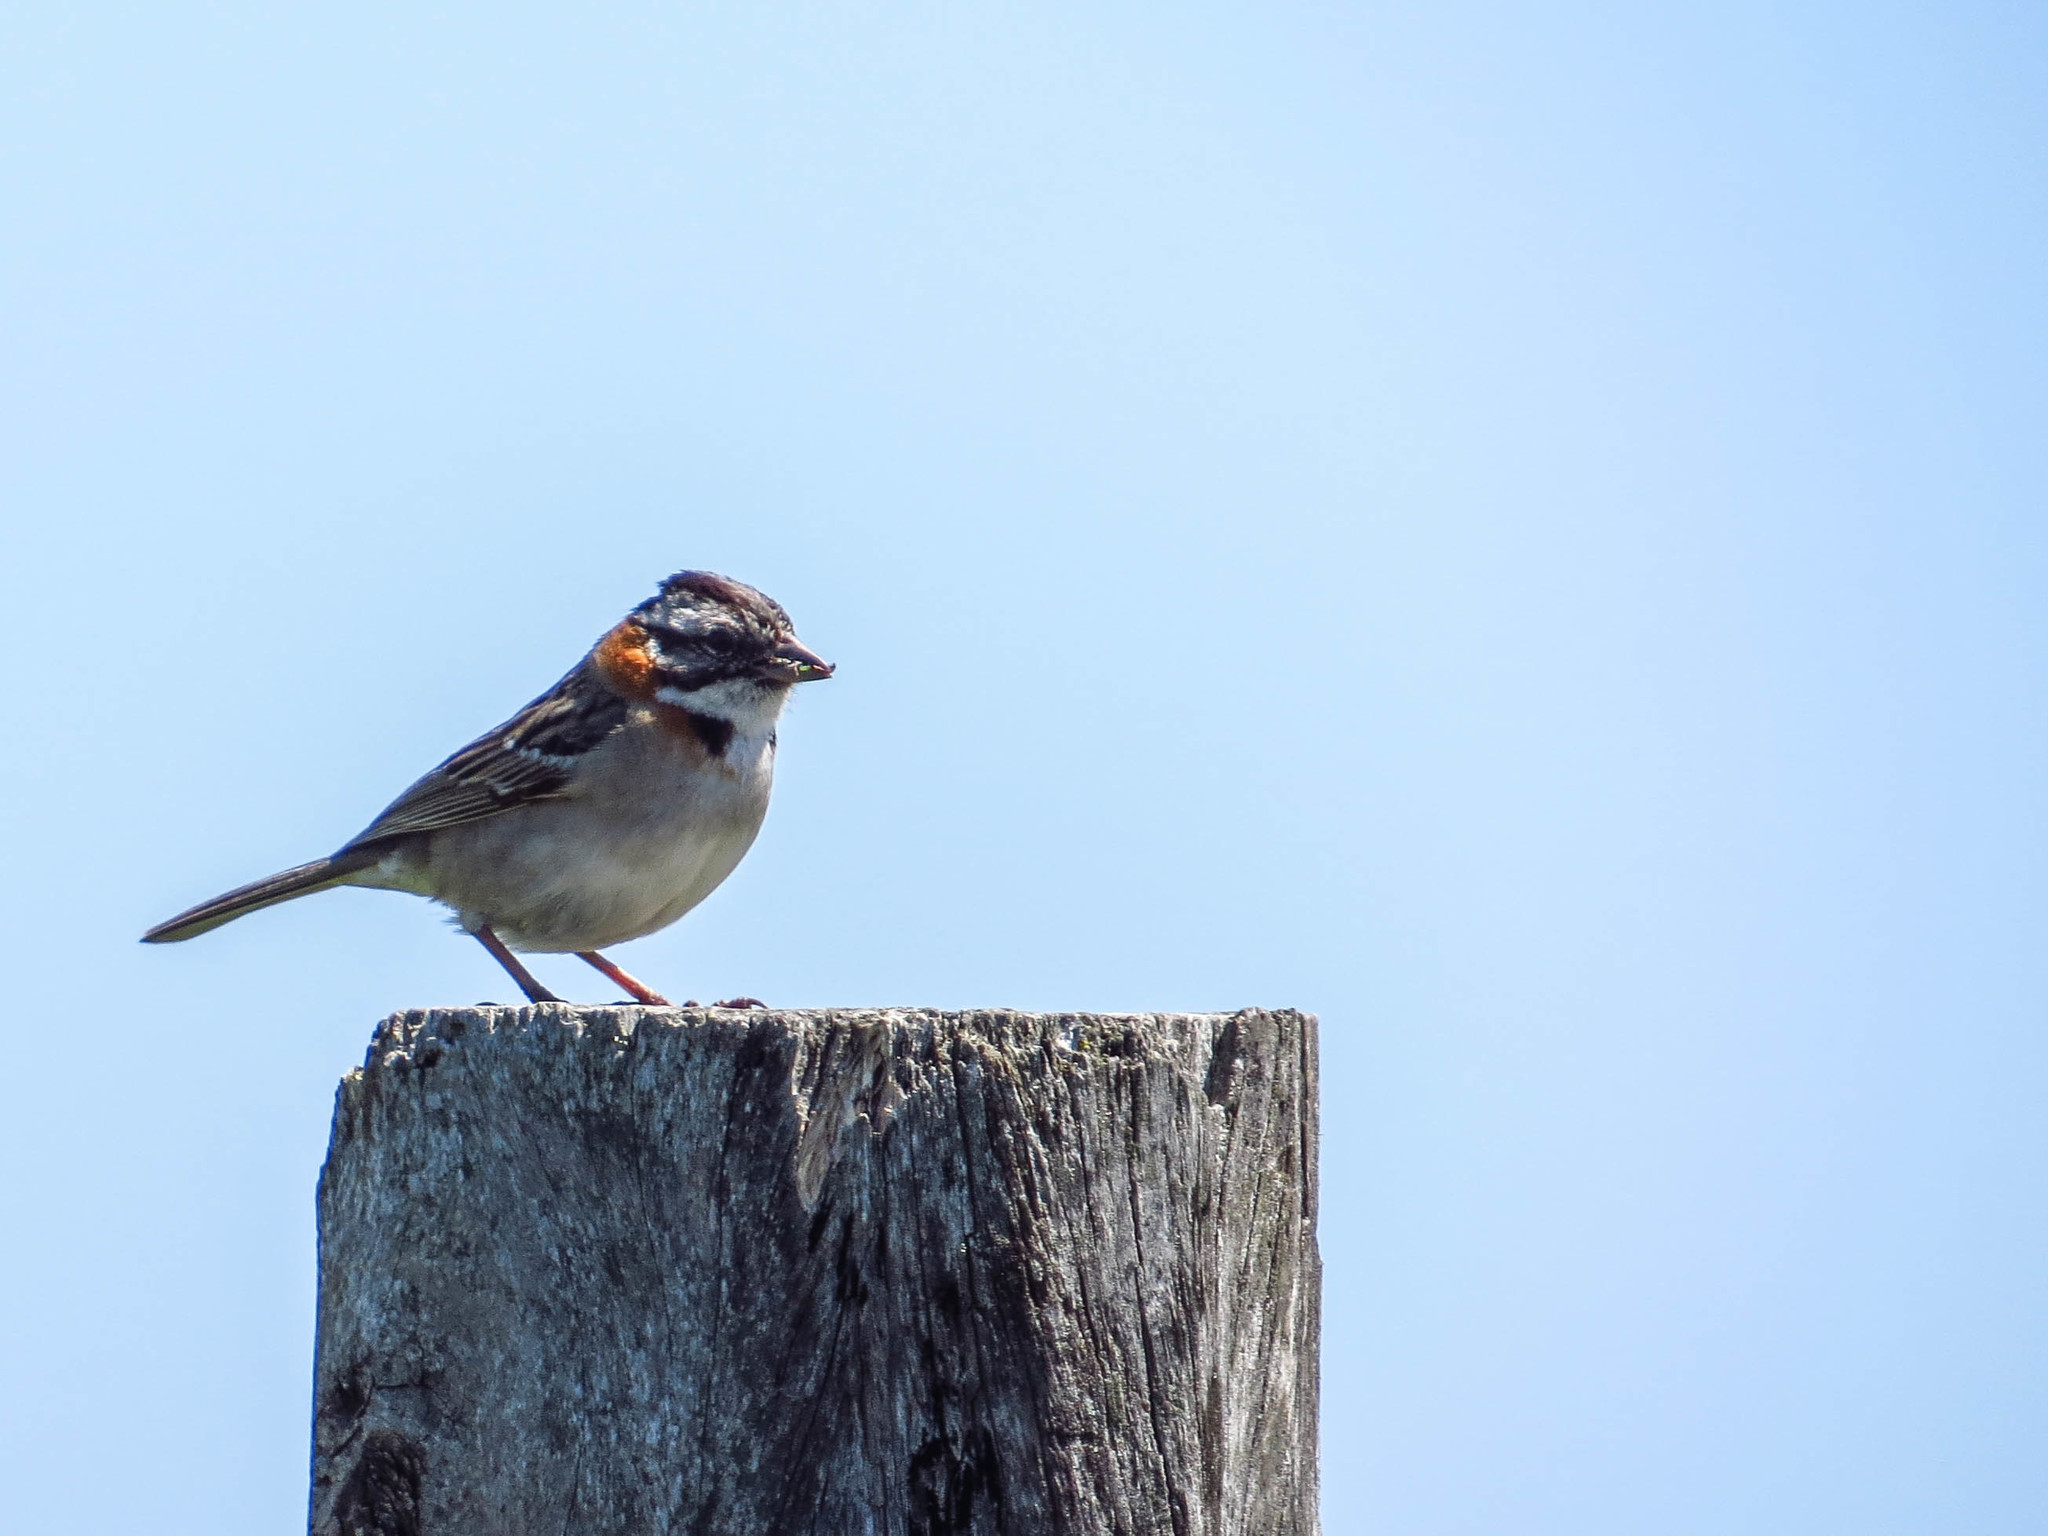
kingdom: Animalia
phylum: Chordata
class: Aves
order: Passeriformes
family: Passerellidae
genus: Zonotrichia
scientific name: Zonotrichia capensis
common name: Rufous-collared sparrow
